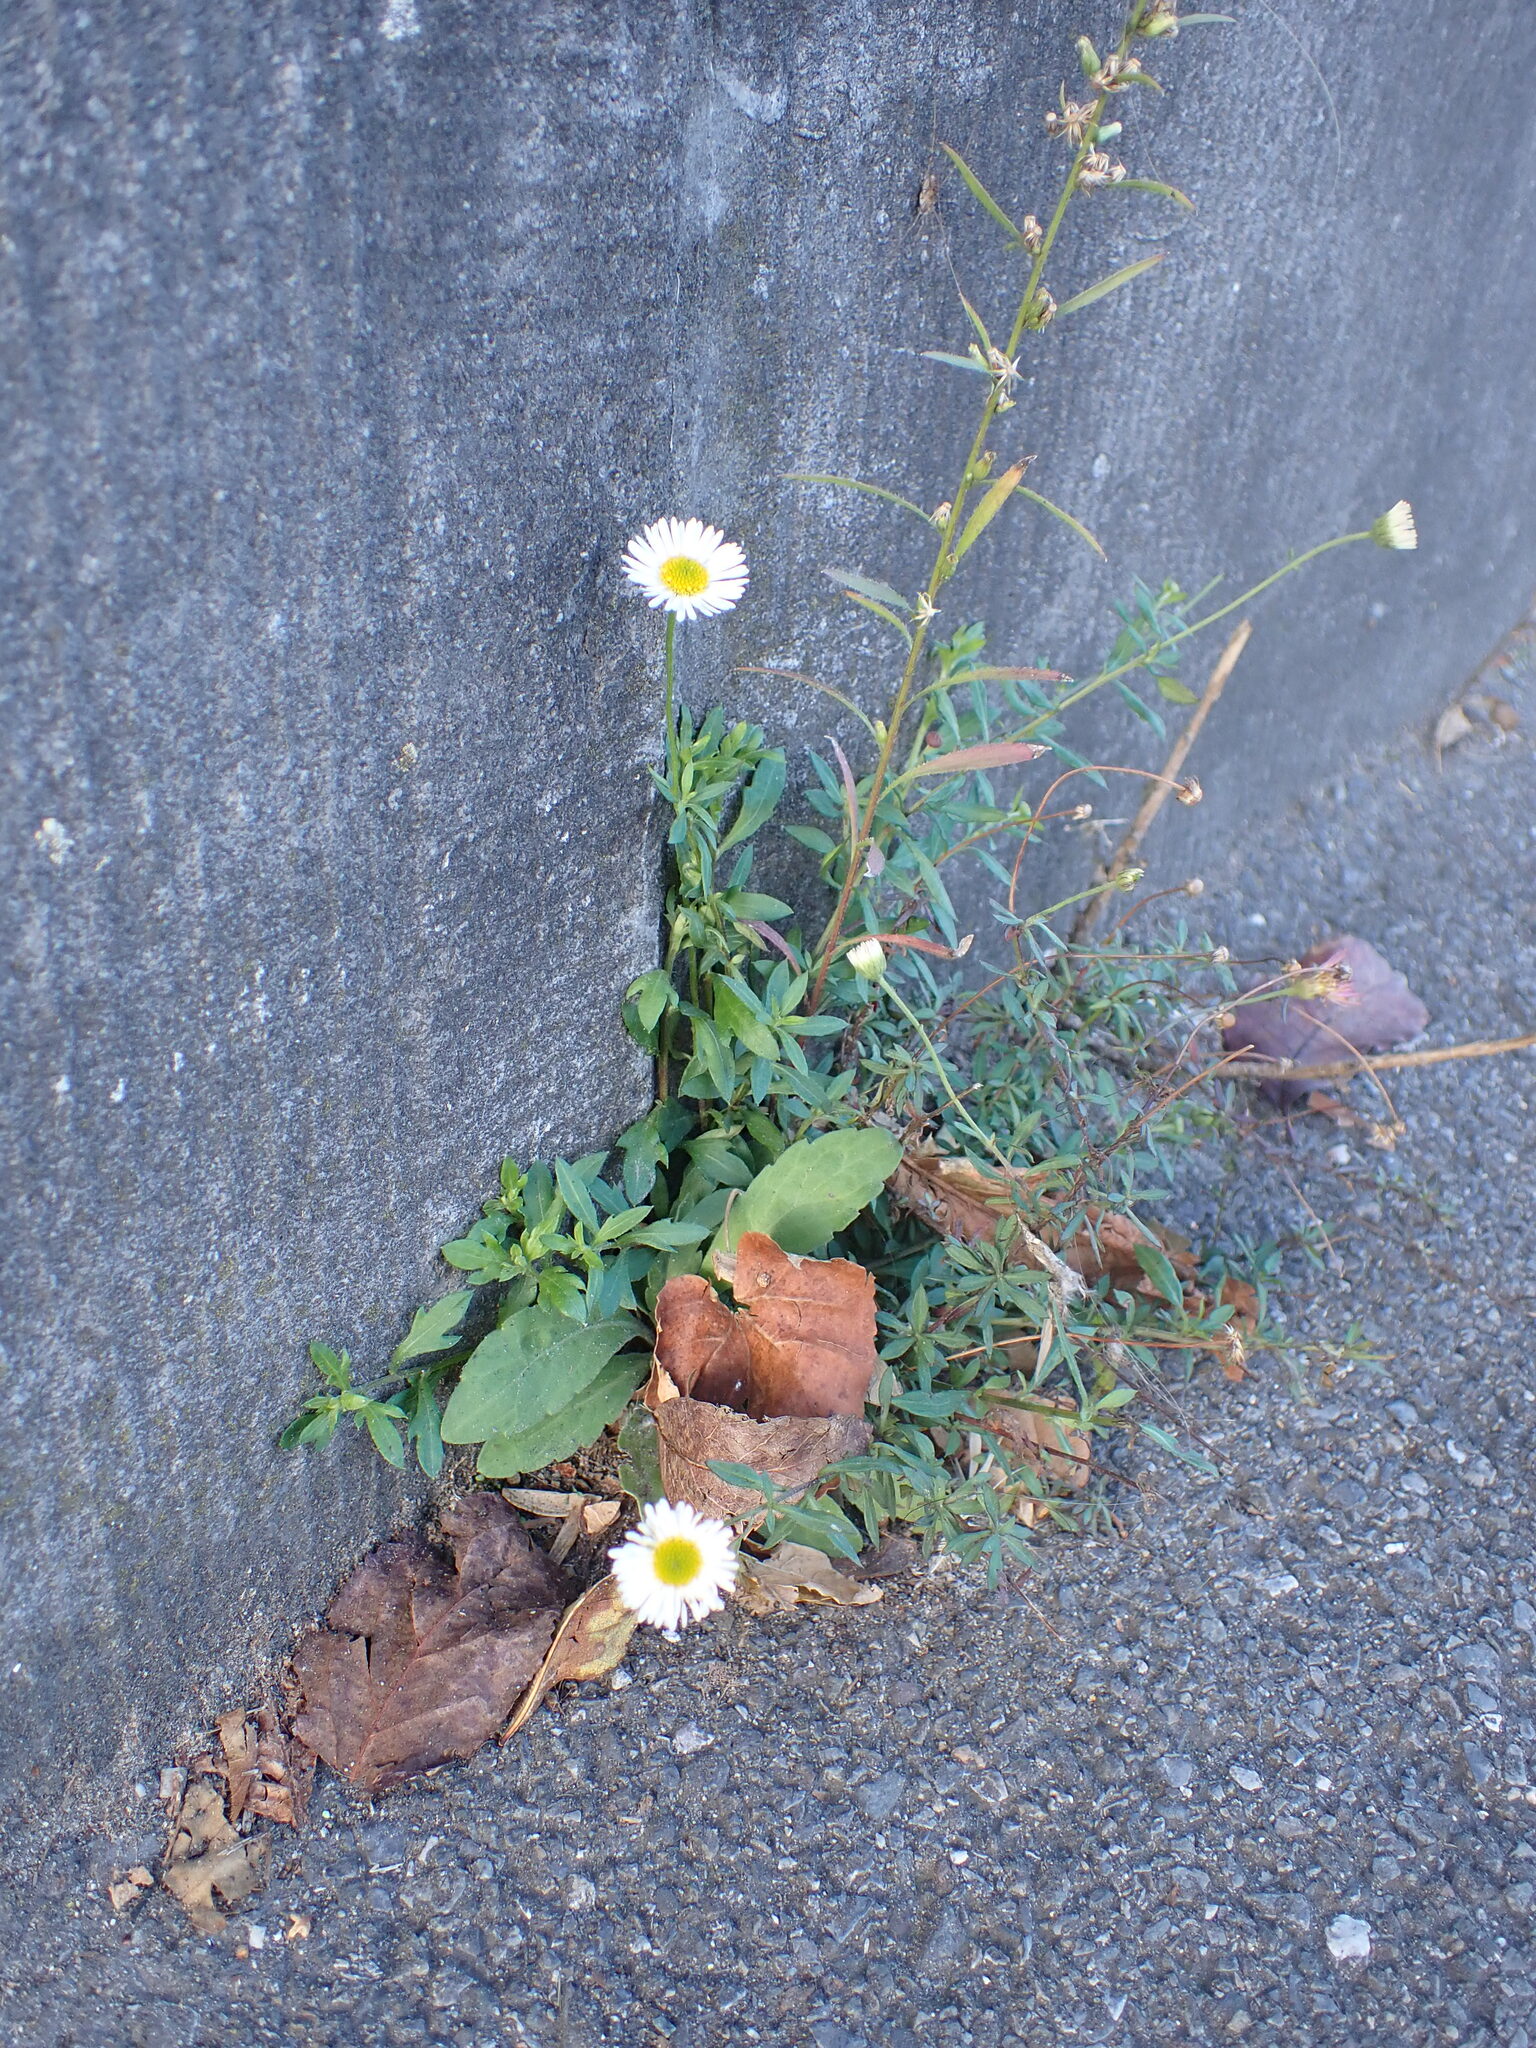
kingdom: Plantae
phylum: Tracheophyta
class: Magnoliopsida
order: Asterales
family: Asteraceae
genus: Erigeron
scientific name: Erigeron karvinskianus
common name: Mexican fleabane
